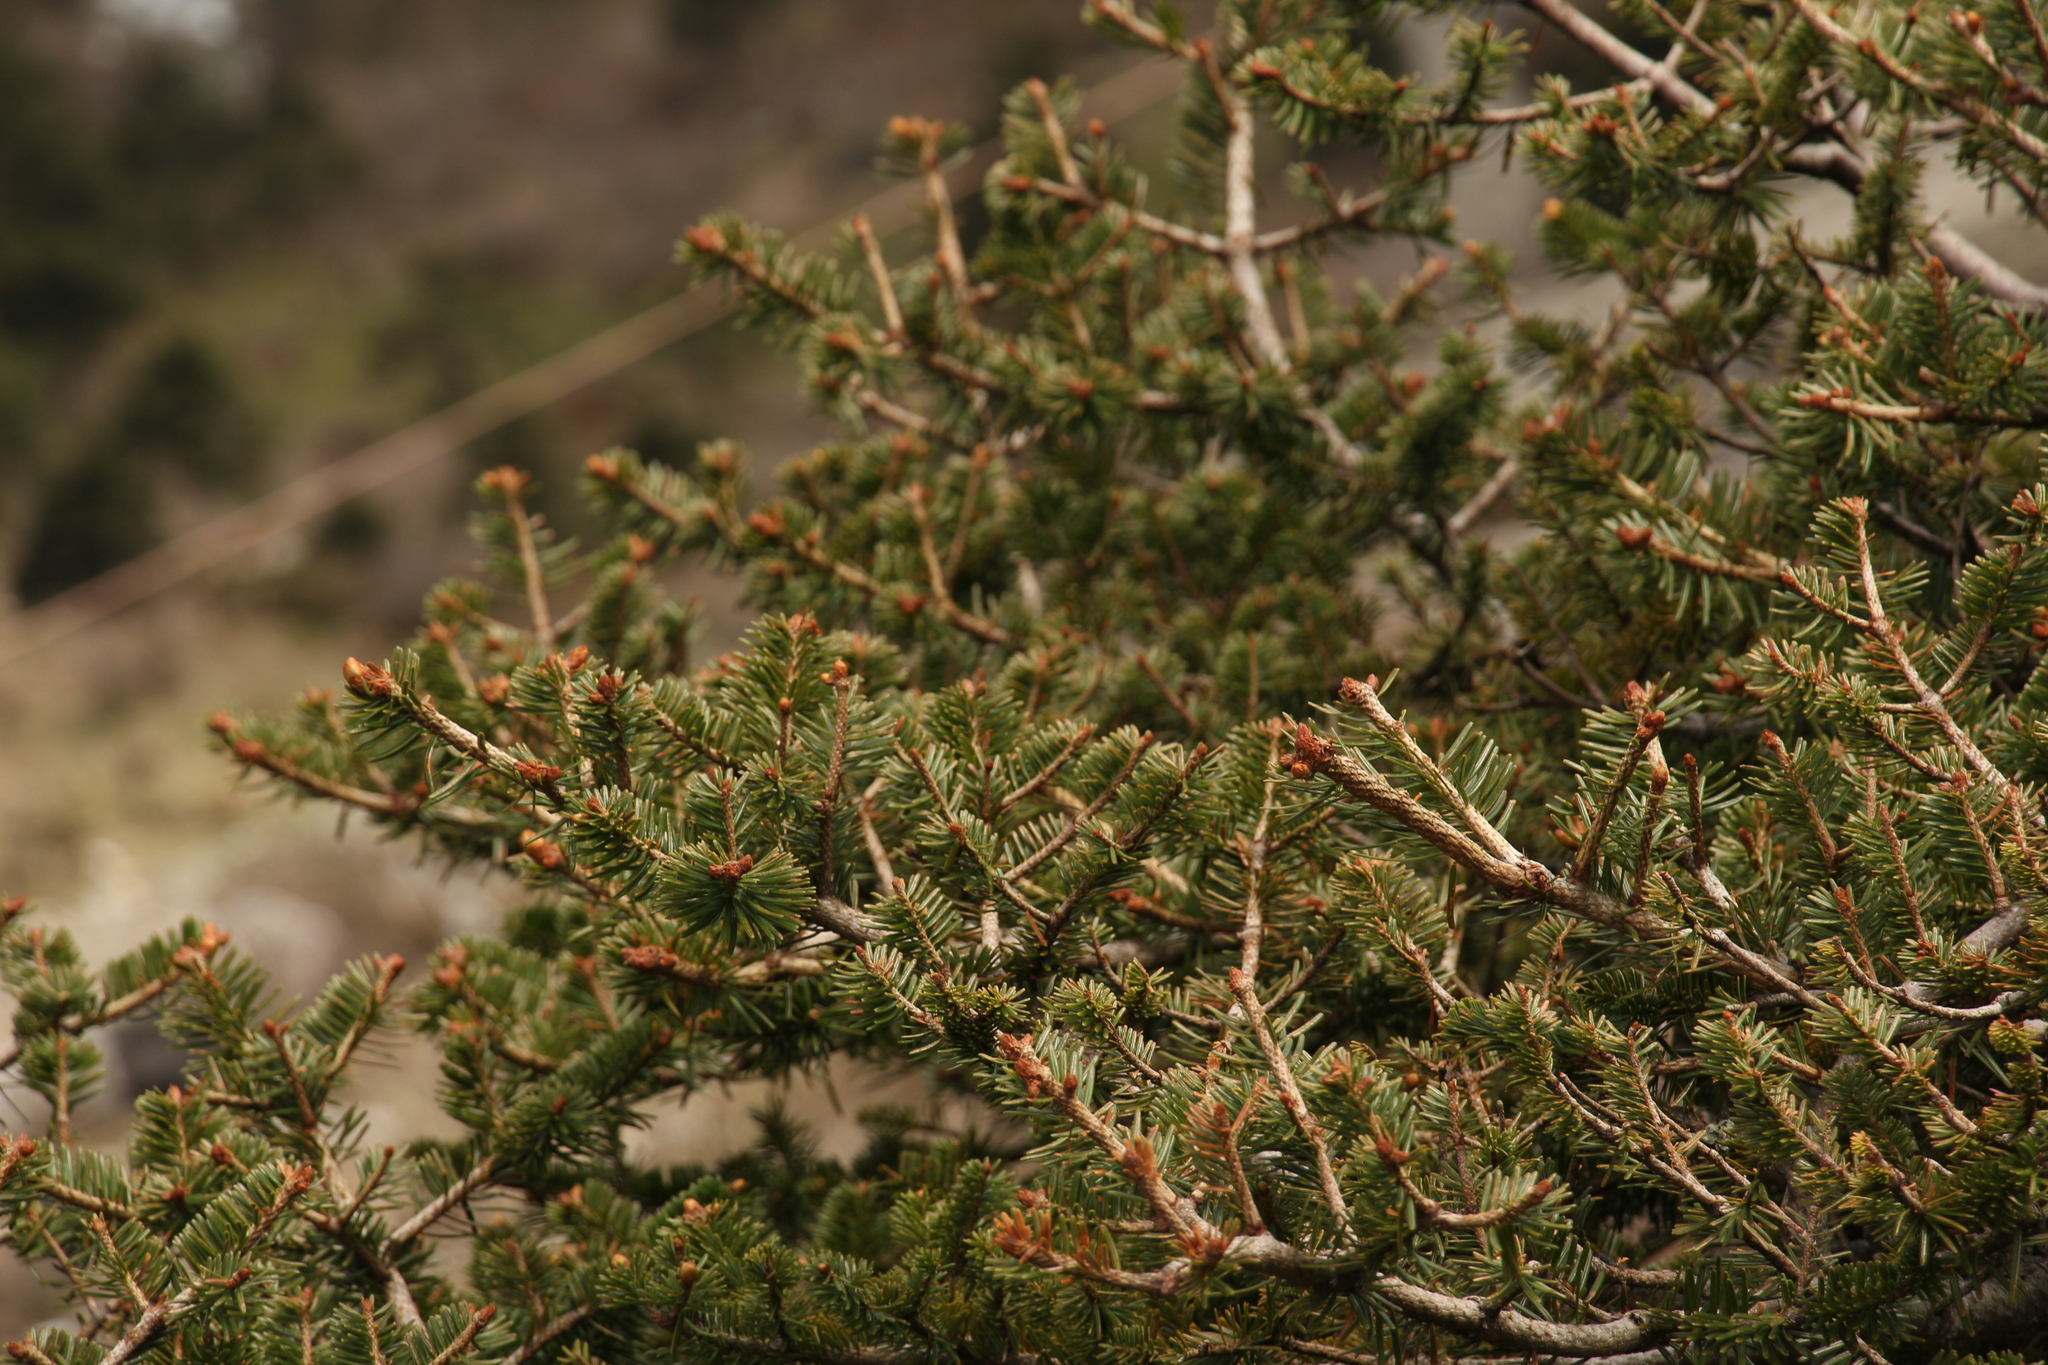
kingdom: Plantae
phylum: Tracheophyta
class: Pinopsida
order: Pinales
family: Pinaceae
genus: Abies
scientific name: Abies densa
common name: Sikkim fir
